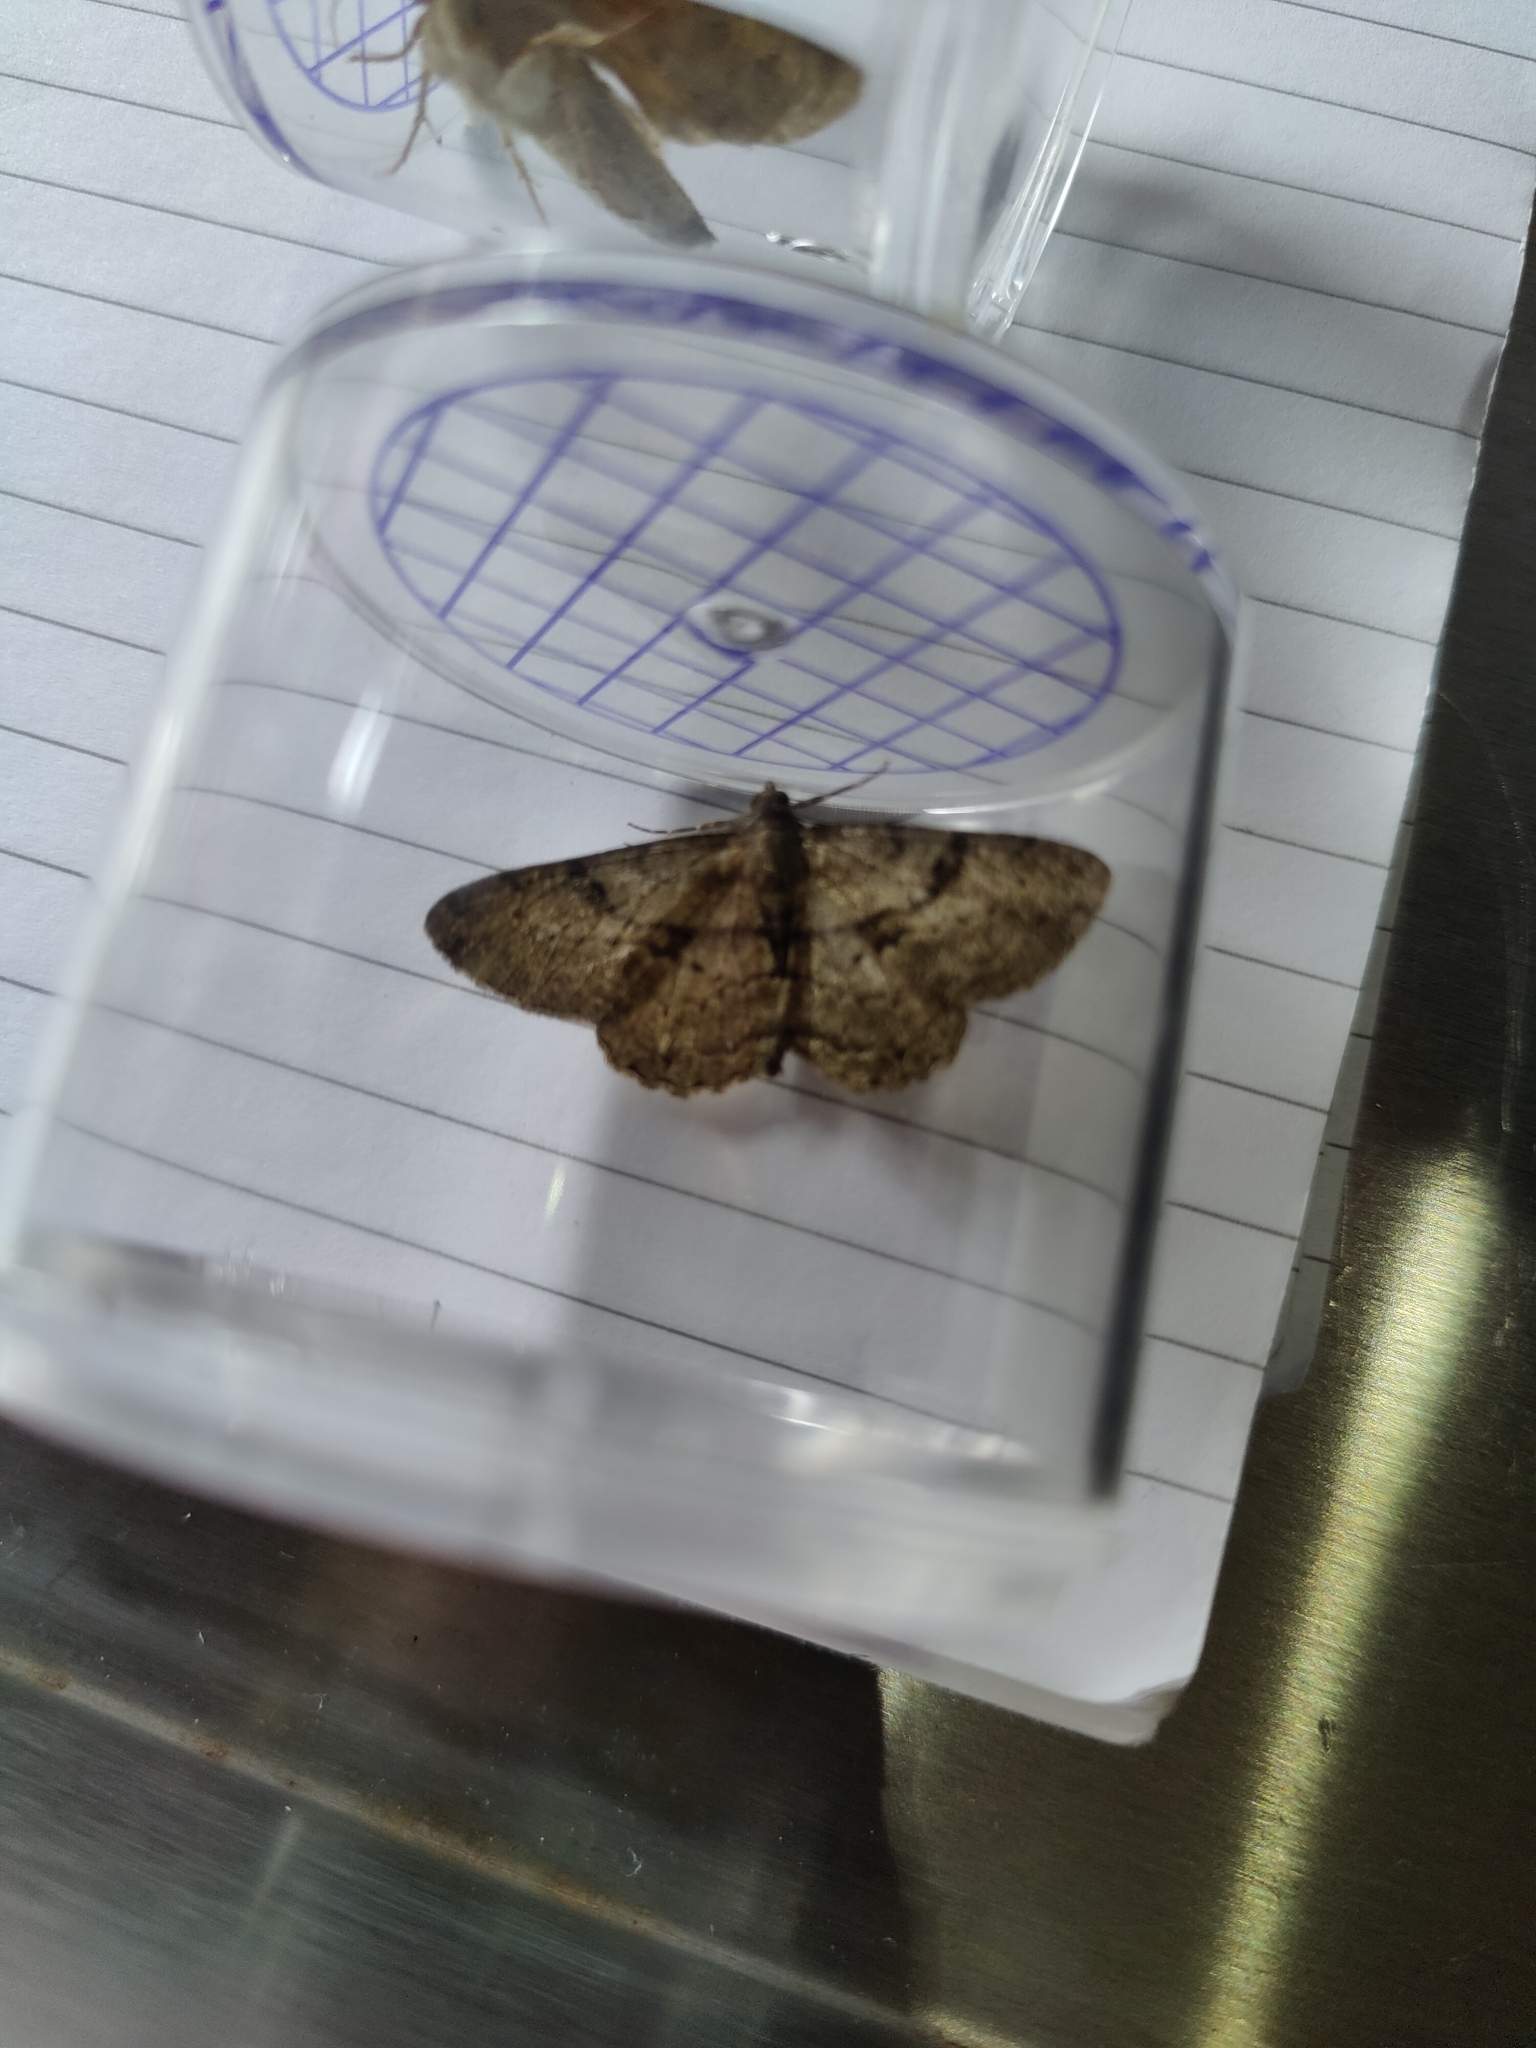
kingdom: Animalia
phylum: Arthropoda
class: Insecta
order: Lepidoptera
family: Geometridae
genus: Peribatodes
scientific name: Peribatodes rhomboidaria
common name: Willow beauty
